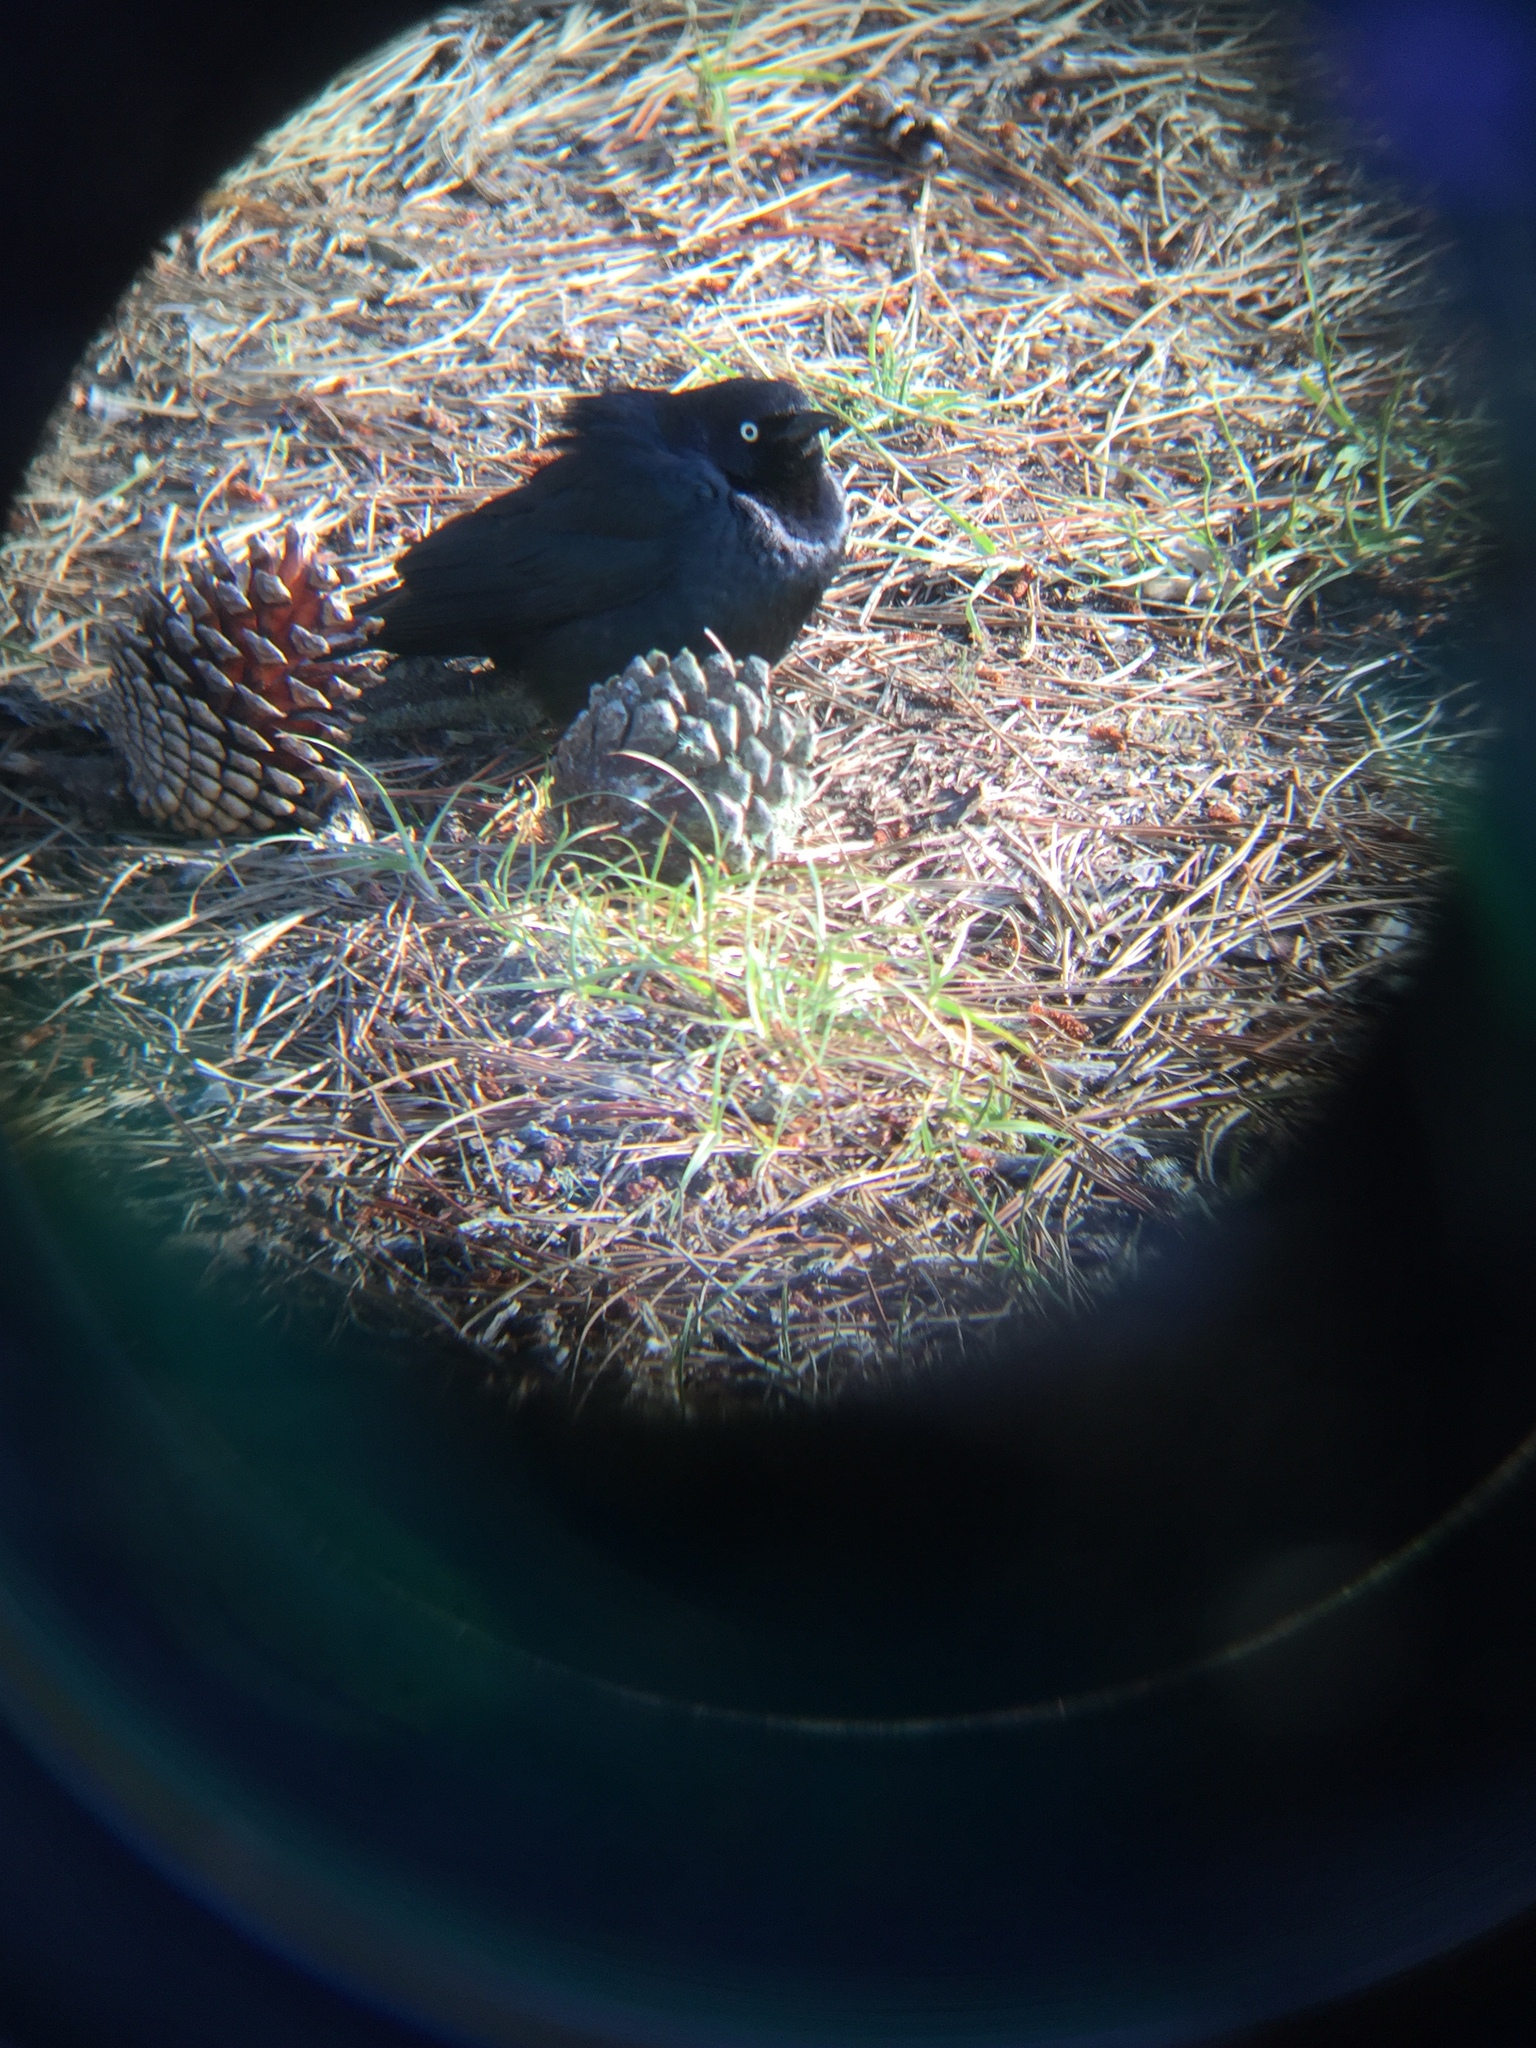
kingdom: Animalia
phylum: Chordata
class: Aves
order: Passeriformes
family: Icteridae
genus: Euphagus
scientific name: Euphagus cyanocephalus
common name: Brewer's blackbird
